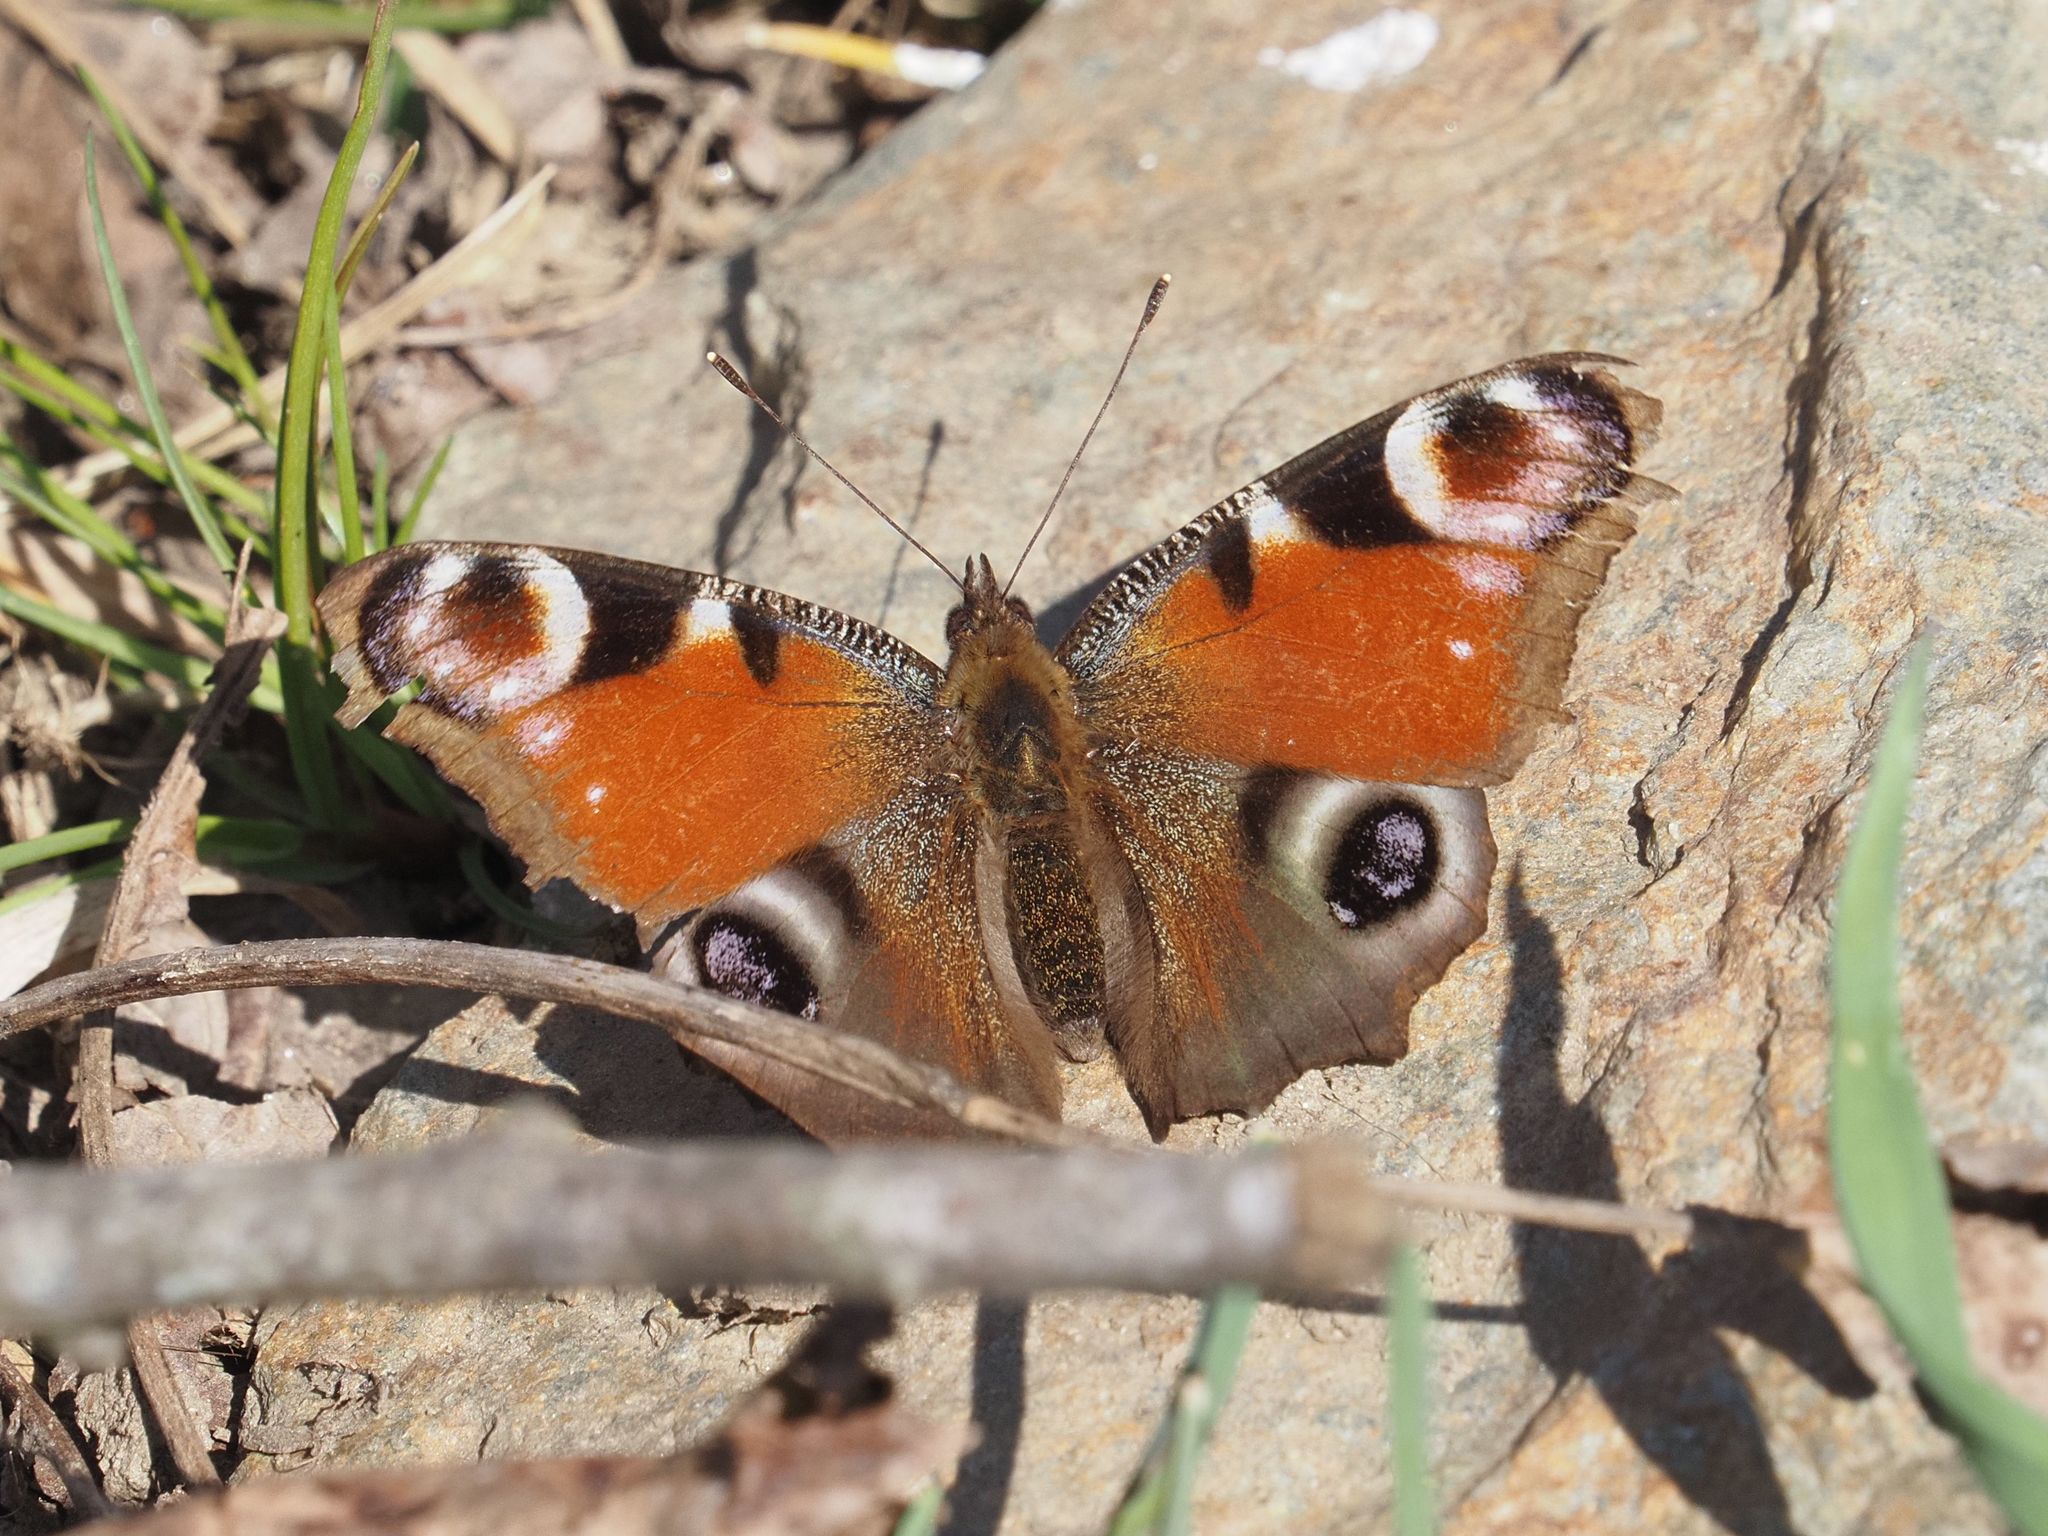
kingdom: Animalia
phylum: Arthropoda
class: Insecta
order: Lepidoptera
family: Nymphalidae
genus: Aglais
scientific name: Aglais io
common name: Peacock
